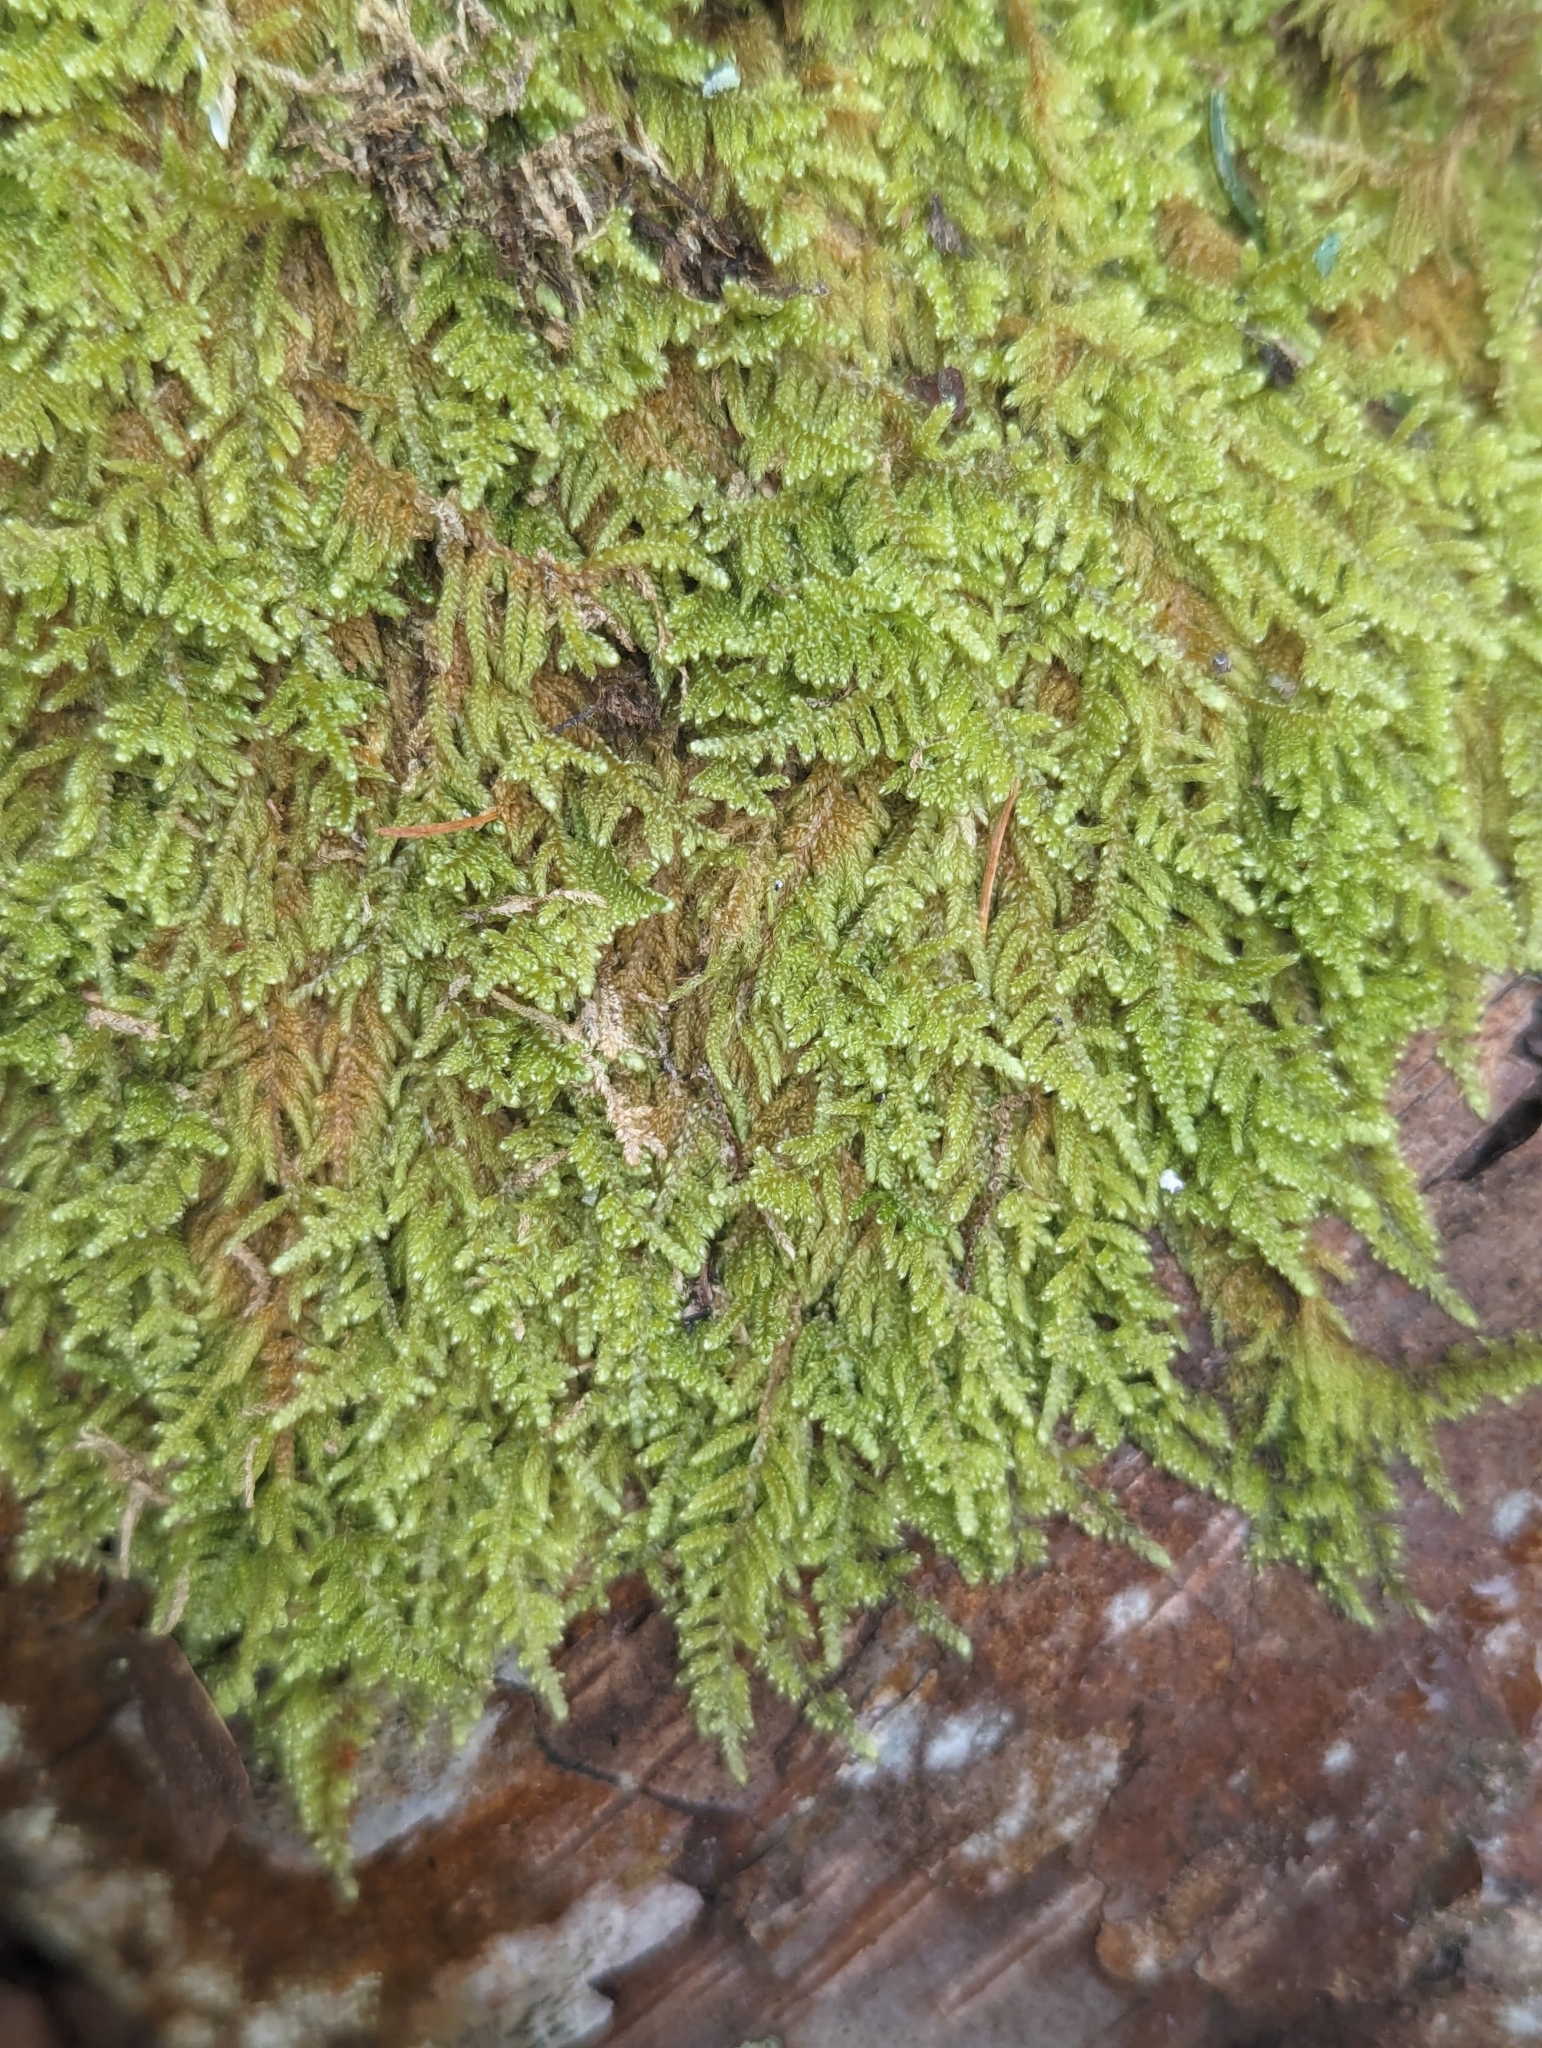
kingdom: Plantae
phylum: Bryophyta
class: Bryopsida
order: Hypnales
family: Callicladiaceae
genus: Callicladium
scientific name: Callicladium imponens
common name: Brocade moss
